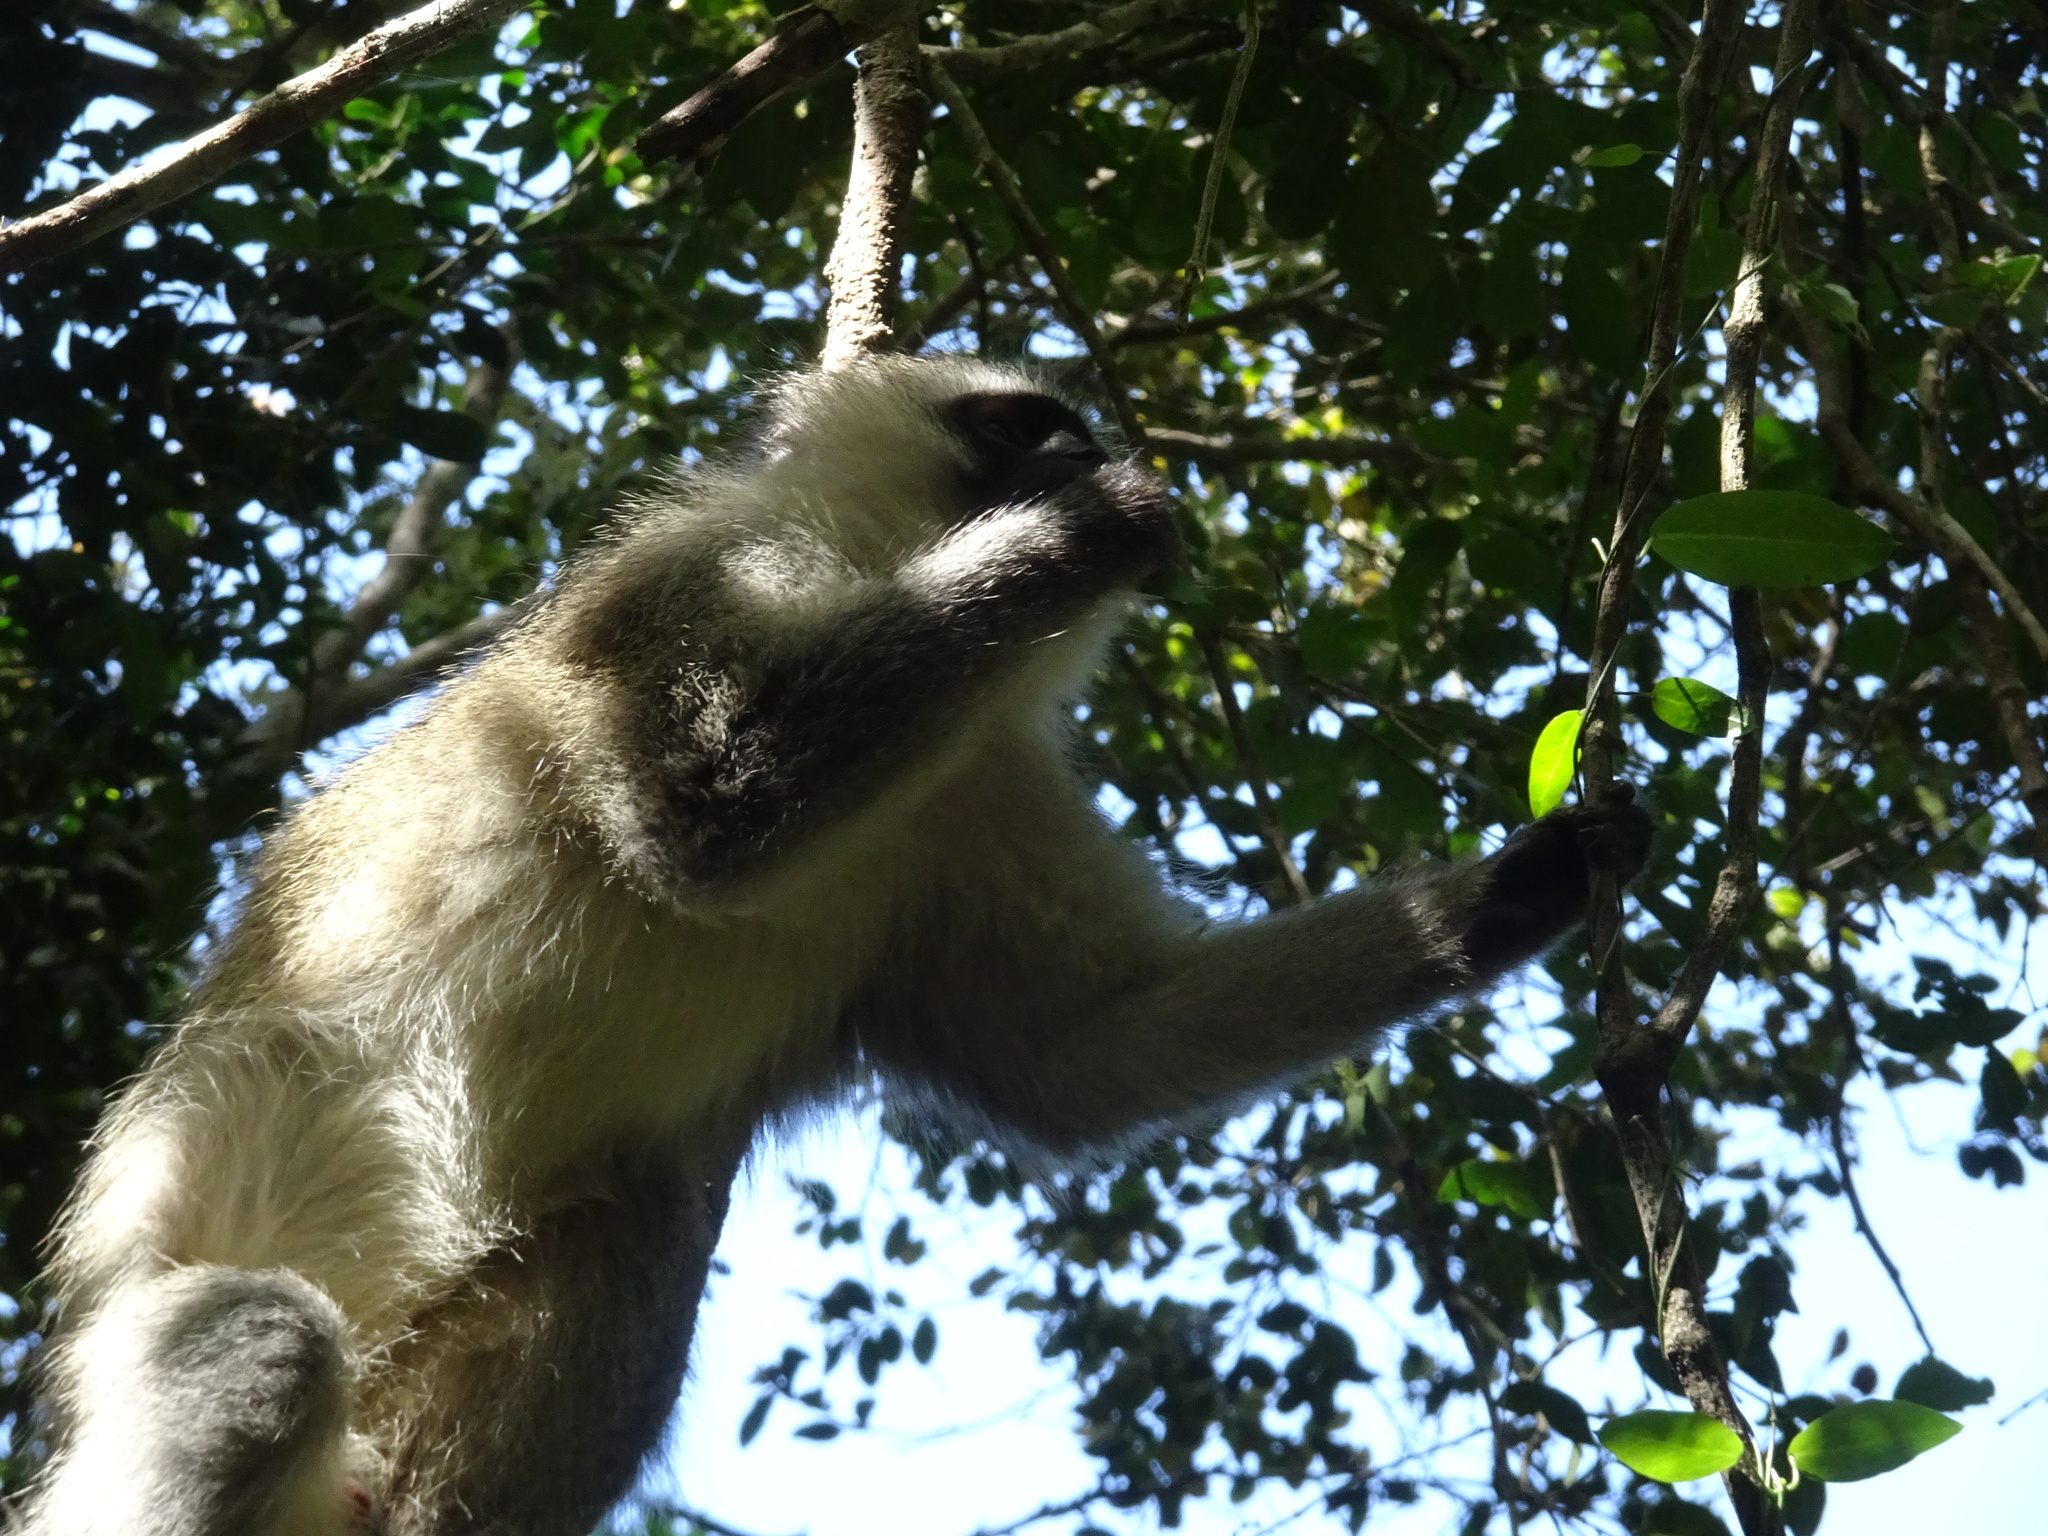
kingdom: Animalia
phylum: Chordata
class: Mammalia
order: Primates
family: Cercopithecidae
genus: Chlorocebus
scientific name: Chlorocebus pygerythrus
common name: Vervet monkey
